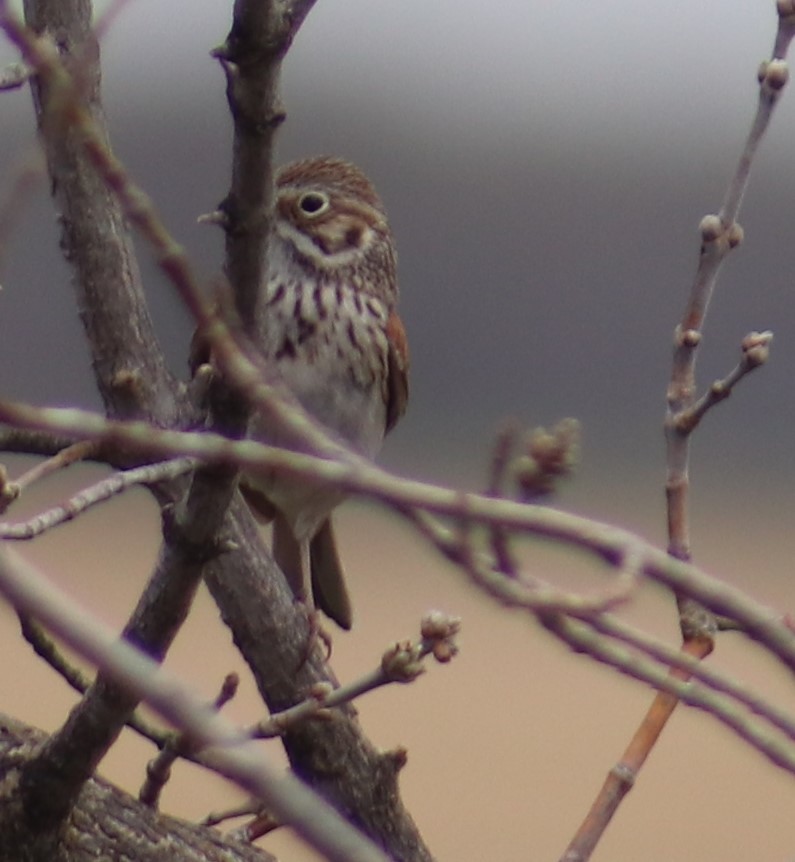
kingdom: Animalia
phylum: Chordata
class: Aves
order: Passeriformes
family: Passerellidae
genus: Pooecetes
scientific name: Pooecetes gramineus
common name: Vesper sparrow
